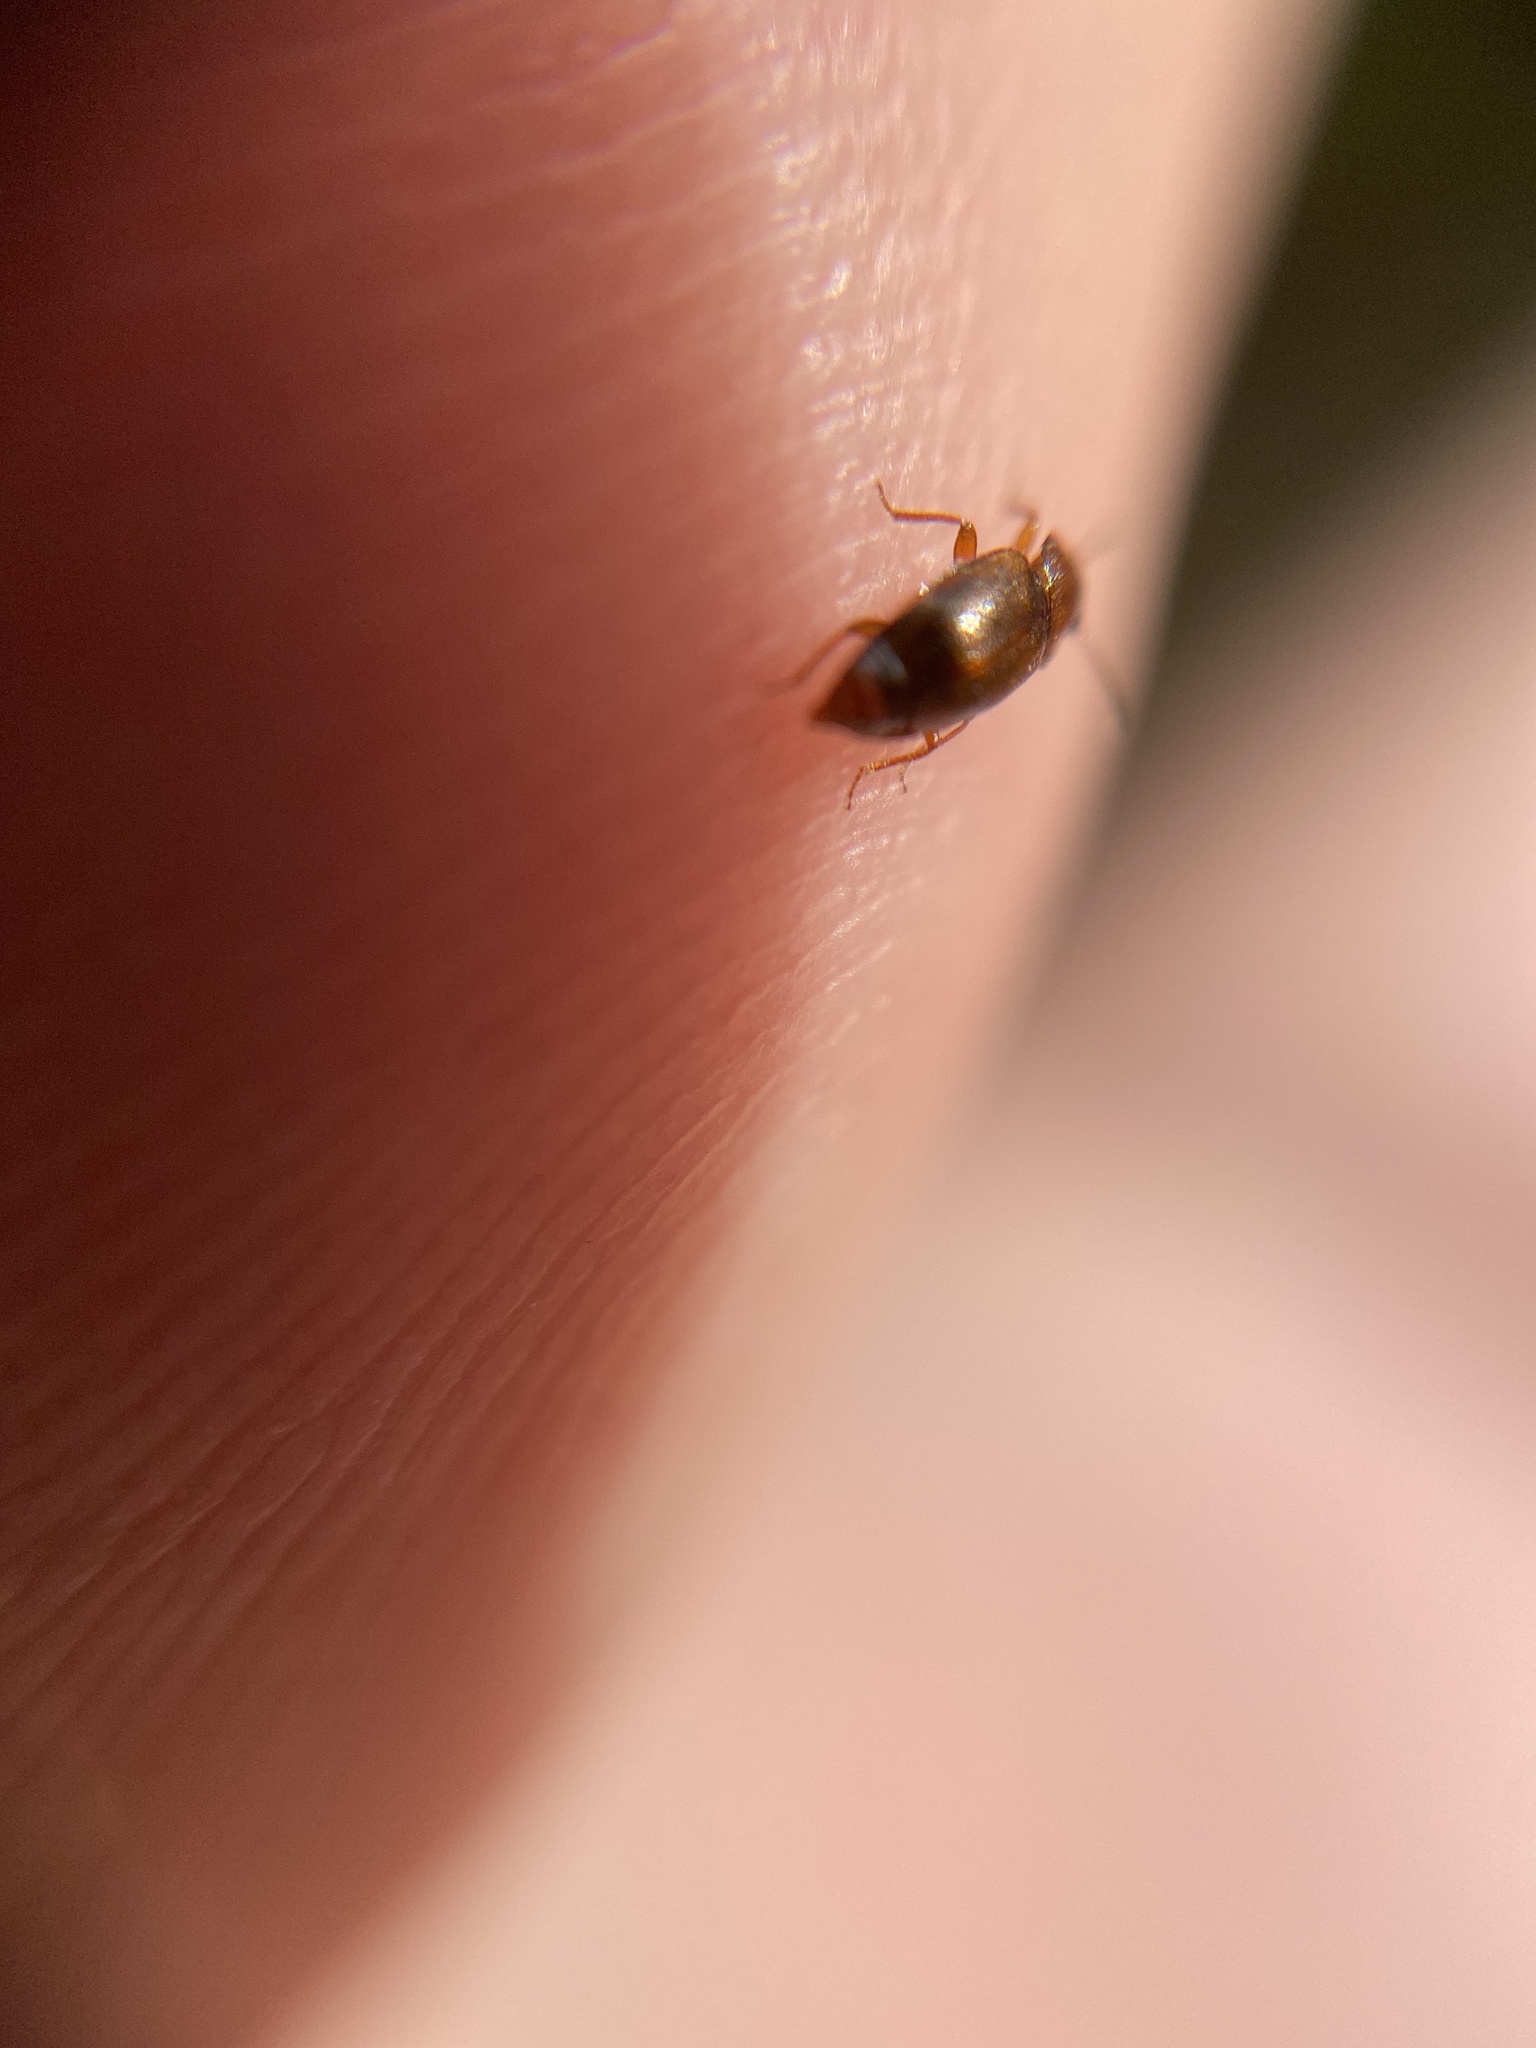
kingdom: Animalia
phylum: Arthropoda
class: Insecta
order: Coleoptera
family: Staphylinidae
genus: Anthobium
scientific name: Anthobium atrocephalum
